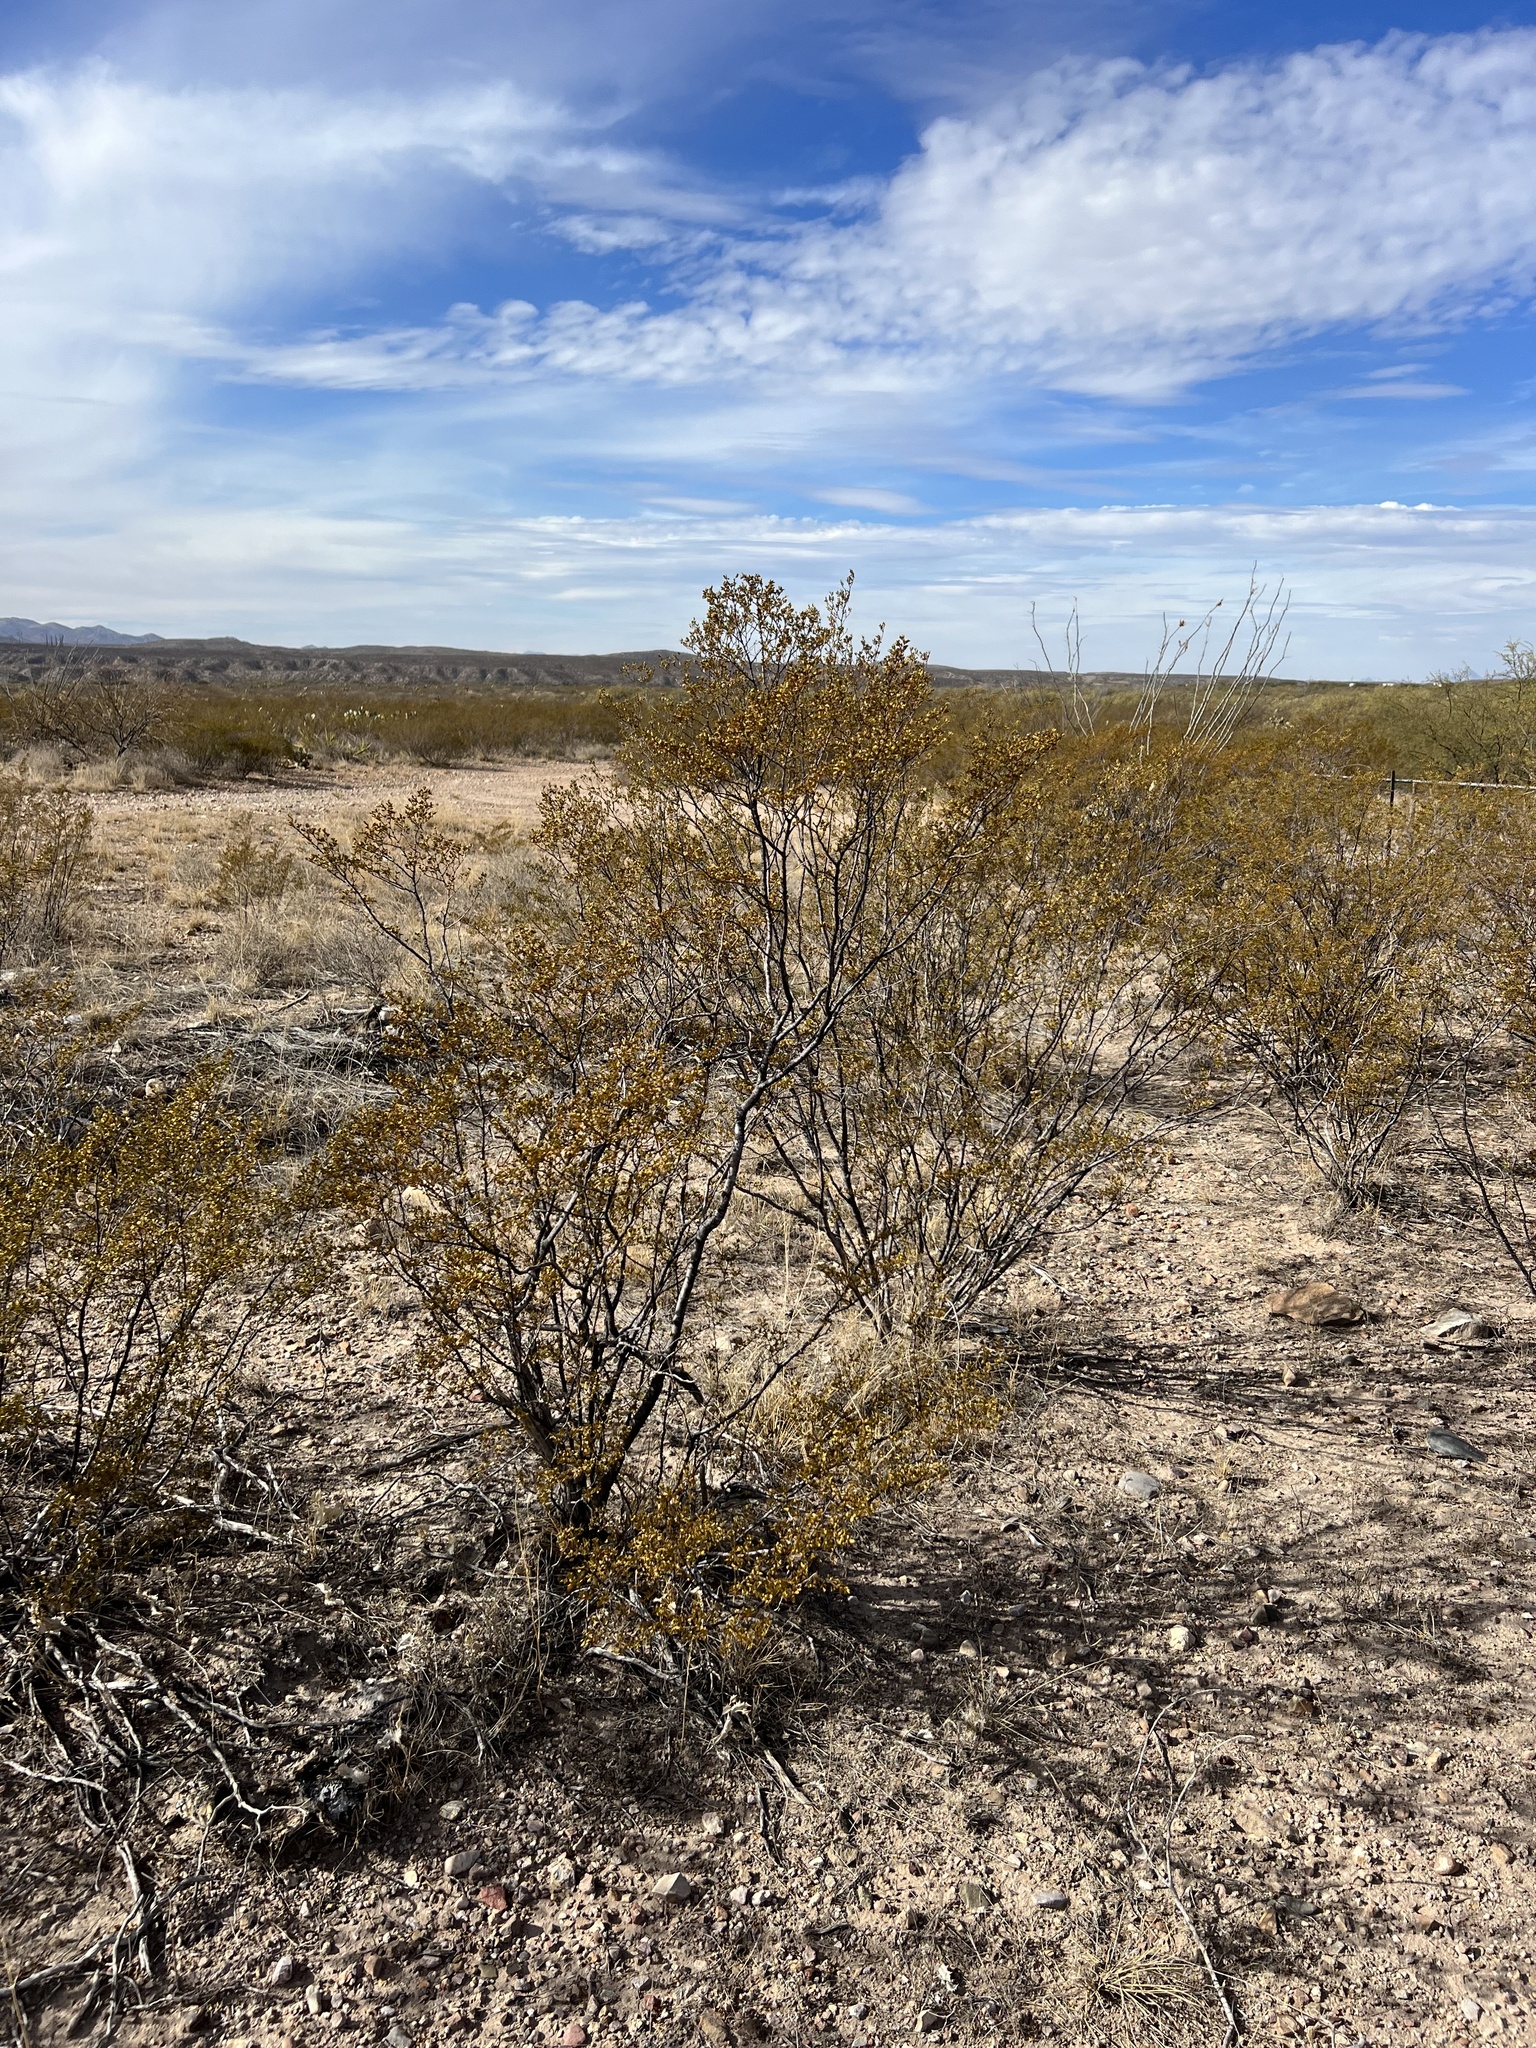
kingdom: Plantae
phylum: Tracheophyta
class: Magnoliopsida
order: Zygophyllales
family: Zygophyllaceae
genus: Larrea
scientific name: Larrea tridentata
